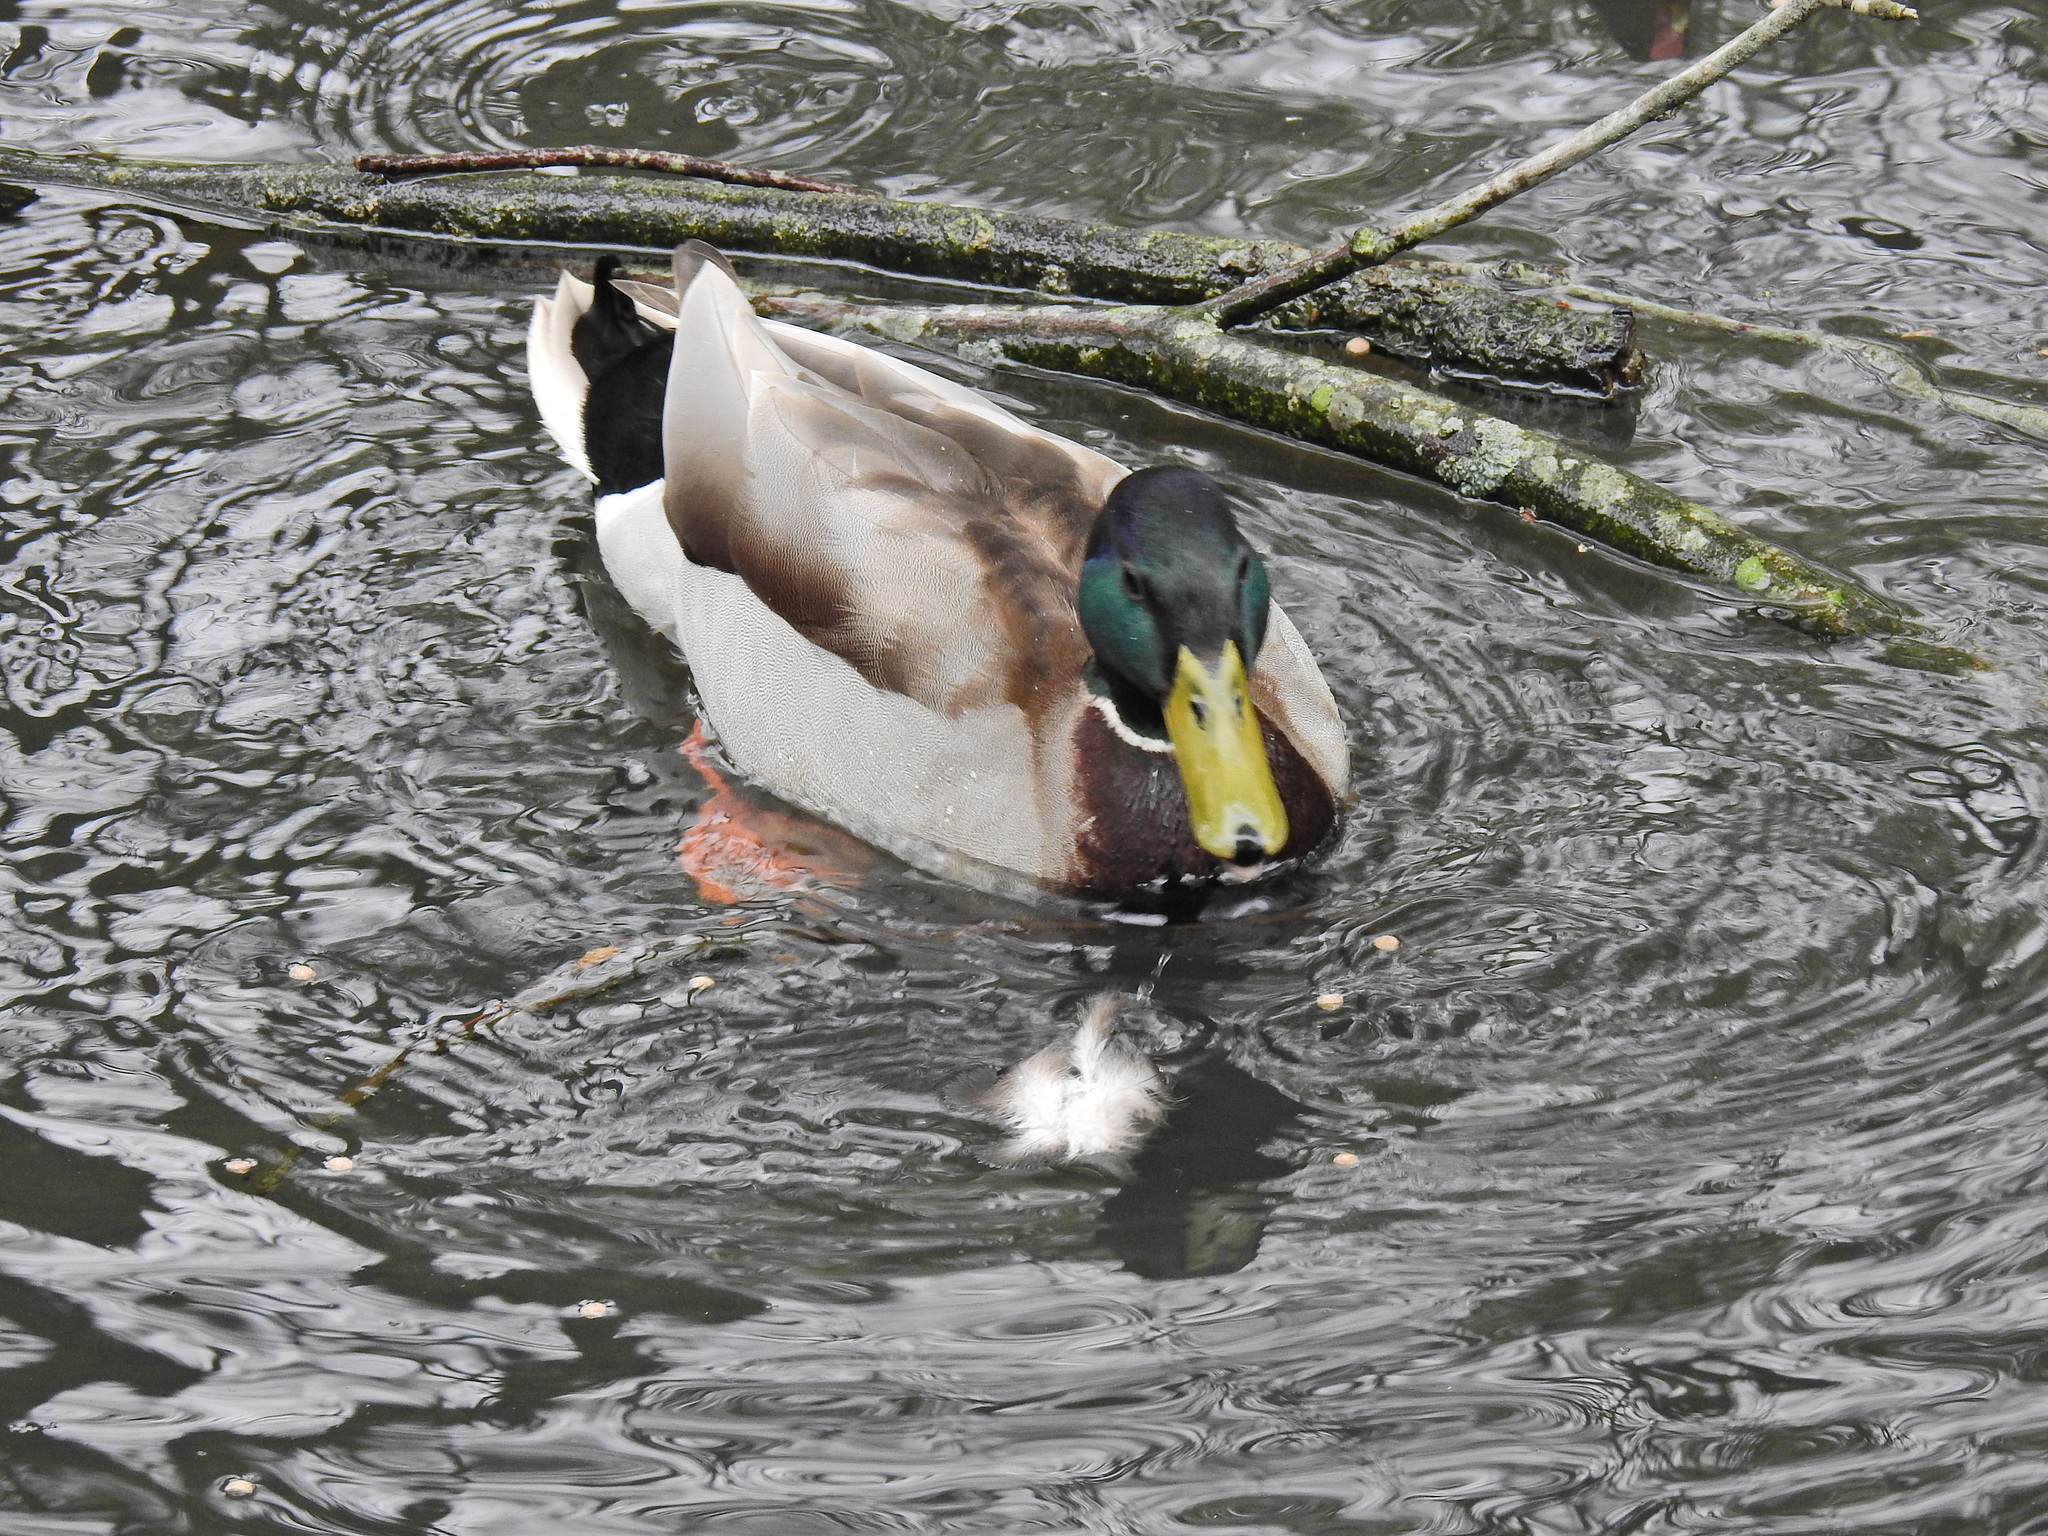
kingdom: Animalia
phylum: Chordata
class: Aves
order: Anseriformes
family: Anatidae
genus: Anas
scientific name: Anas platyrhynchos
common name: Mallard
